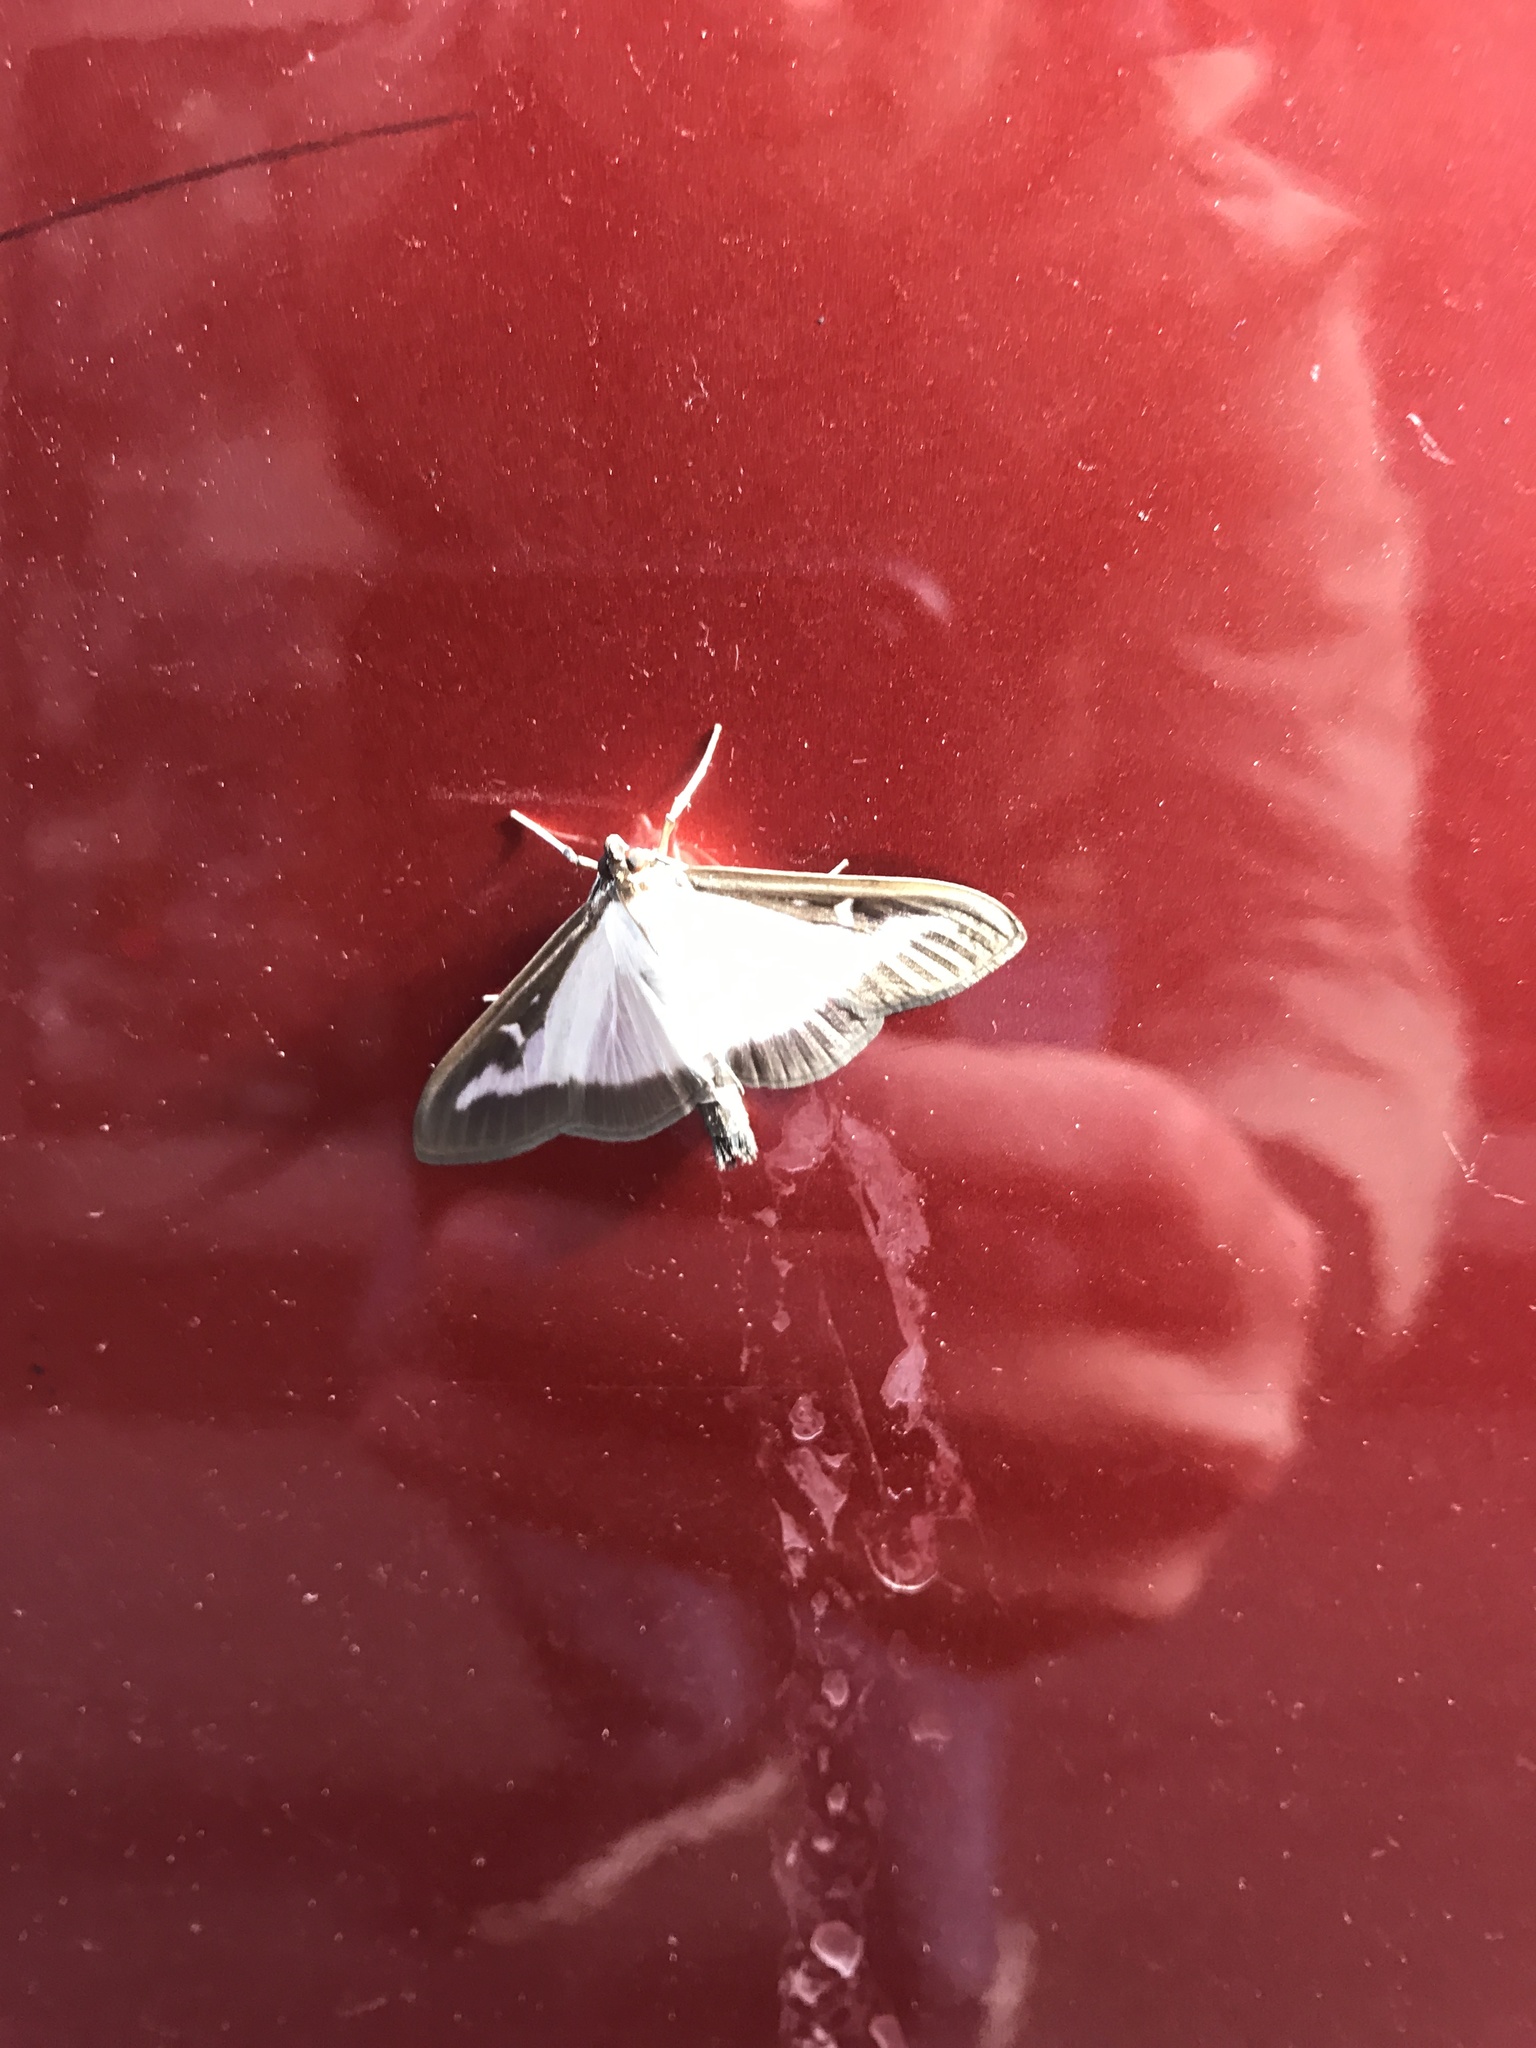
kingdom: Animalia
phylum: Arthropoda
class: Insecta
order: Lepidoptera
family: Crambidae
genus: Cydalima
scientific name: Cydalima perspectalis
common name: Box tree moth
